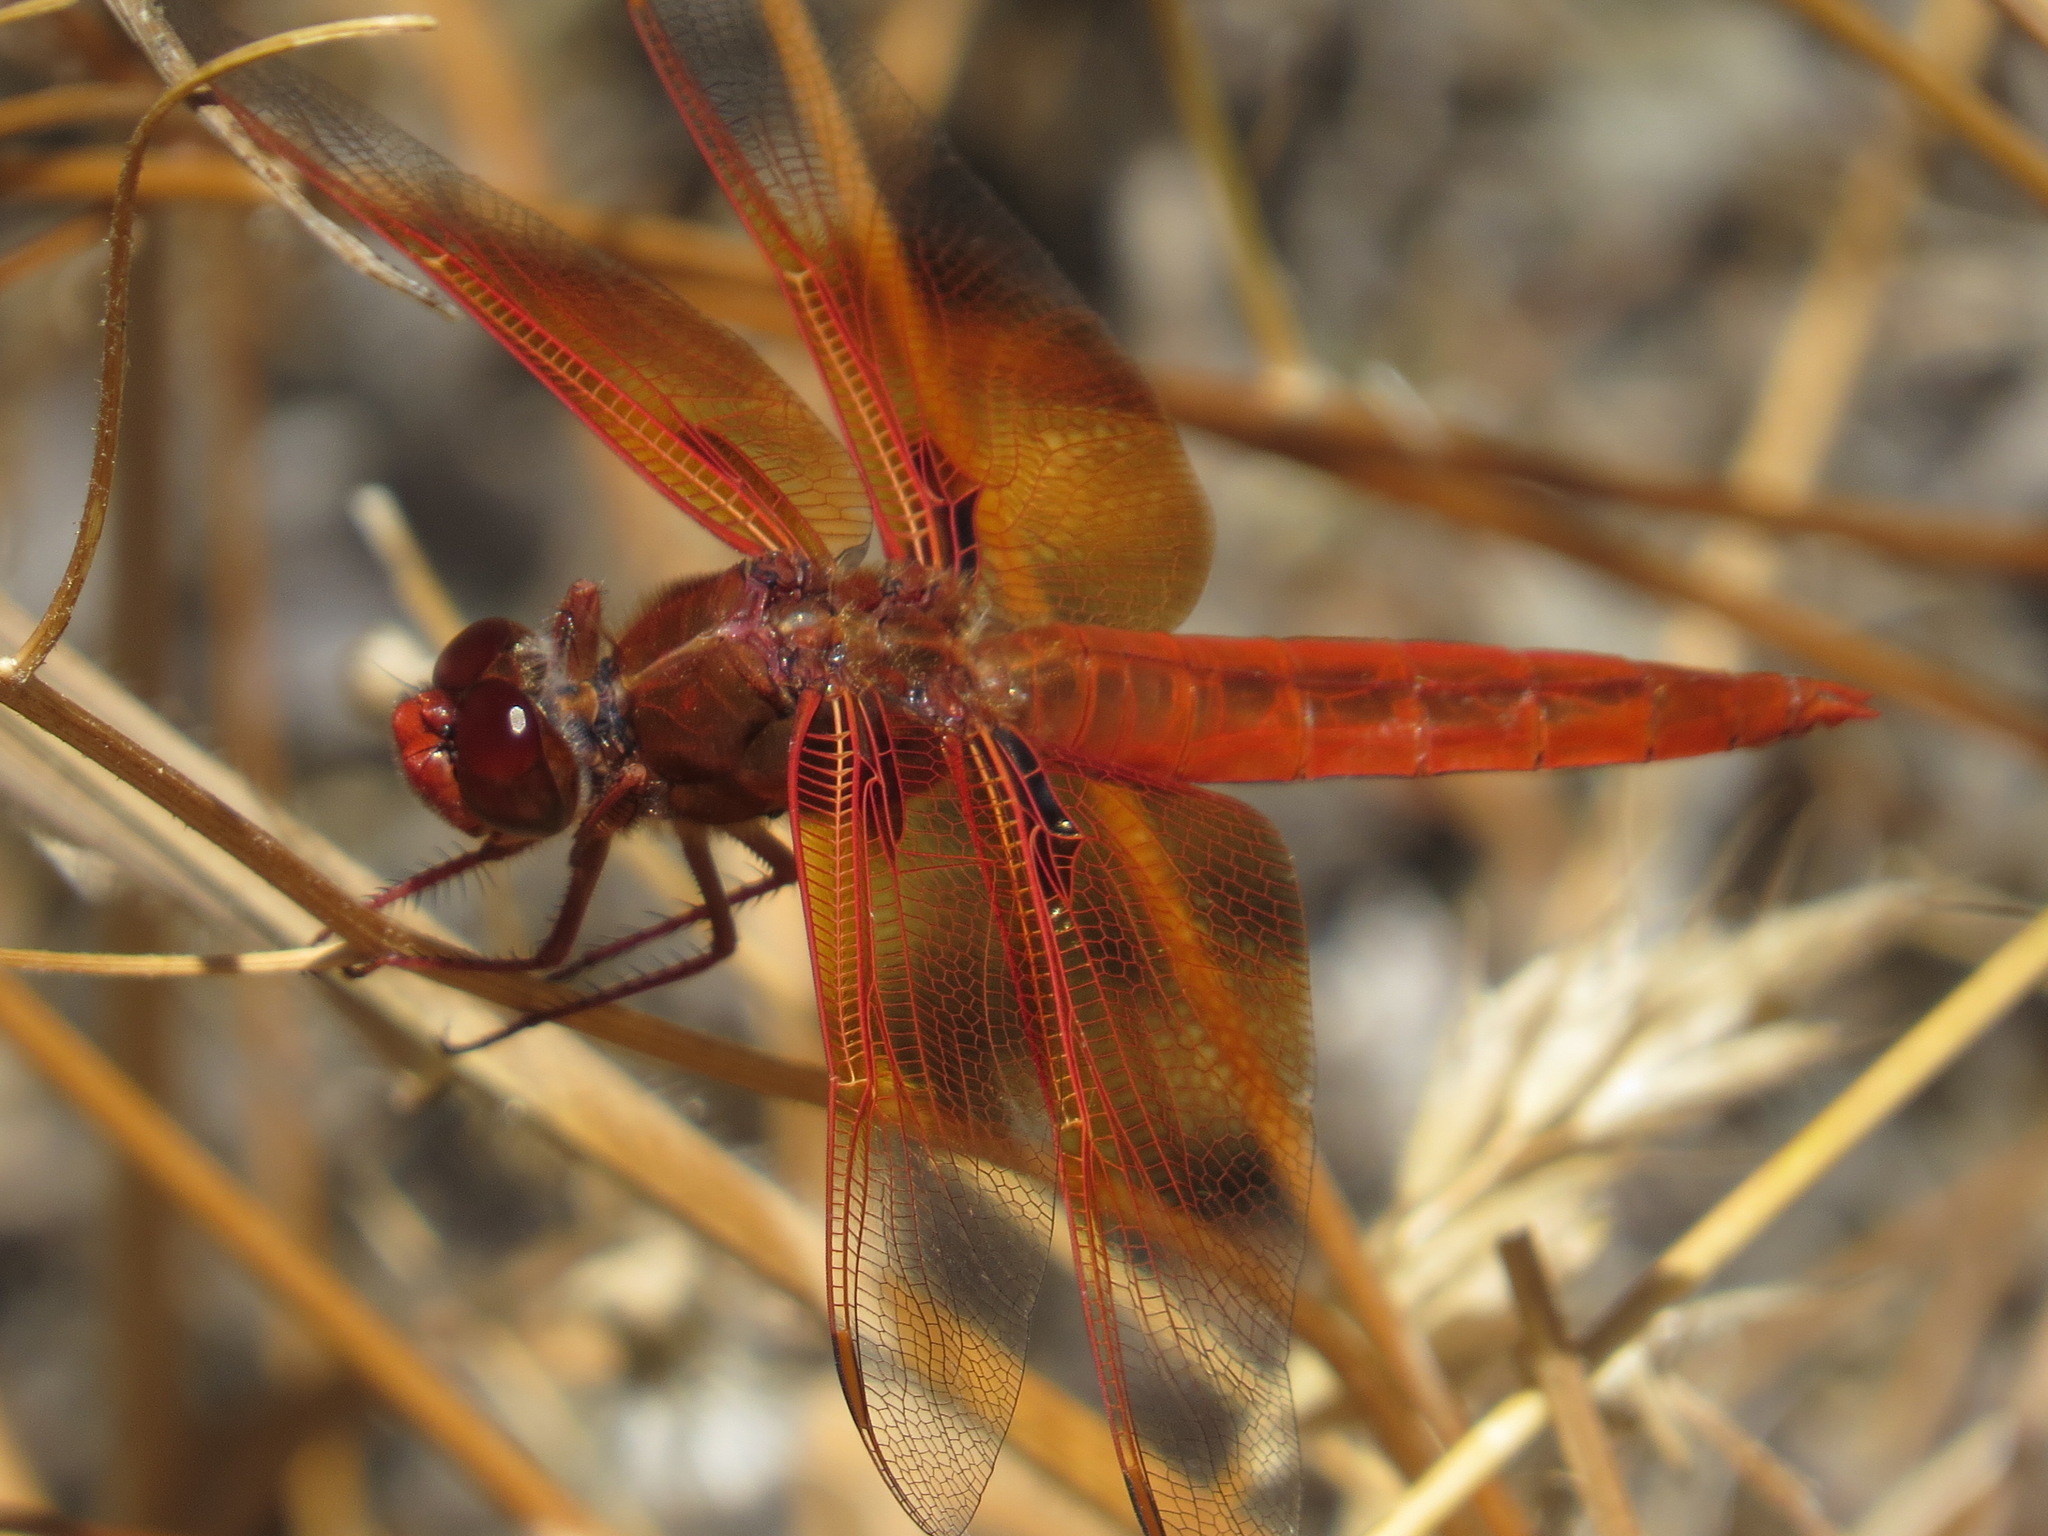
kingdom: Animalia
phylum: Arthropoda
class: Insecta
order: Odonata
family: Libellulidae
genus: Libellula
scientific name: Libellula saturata
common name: Flame skimmer
